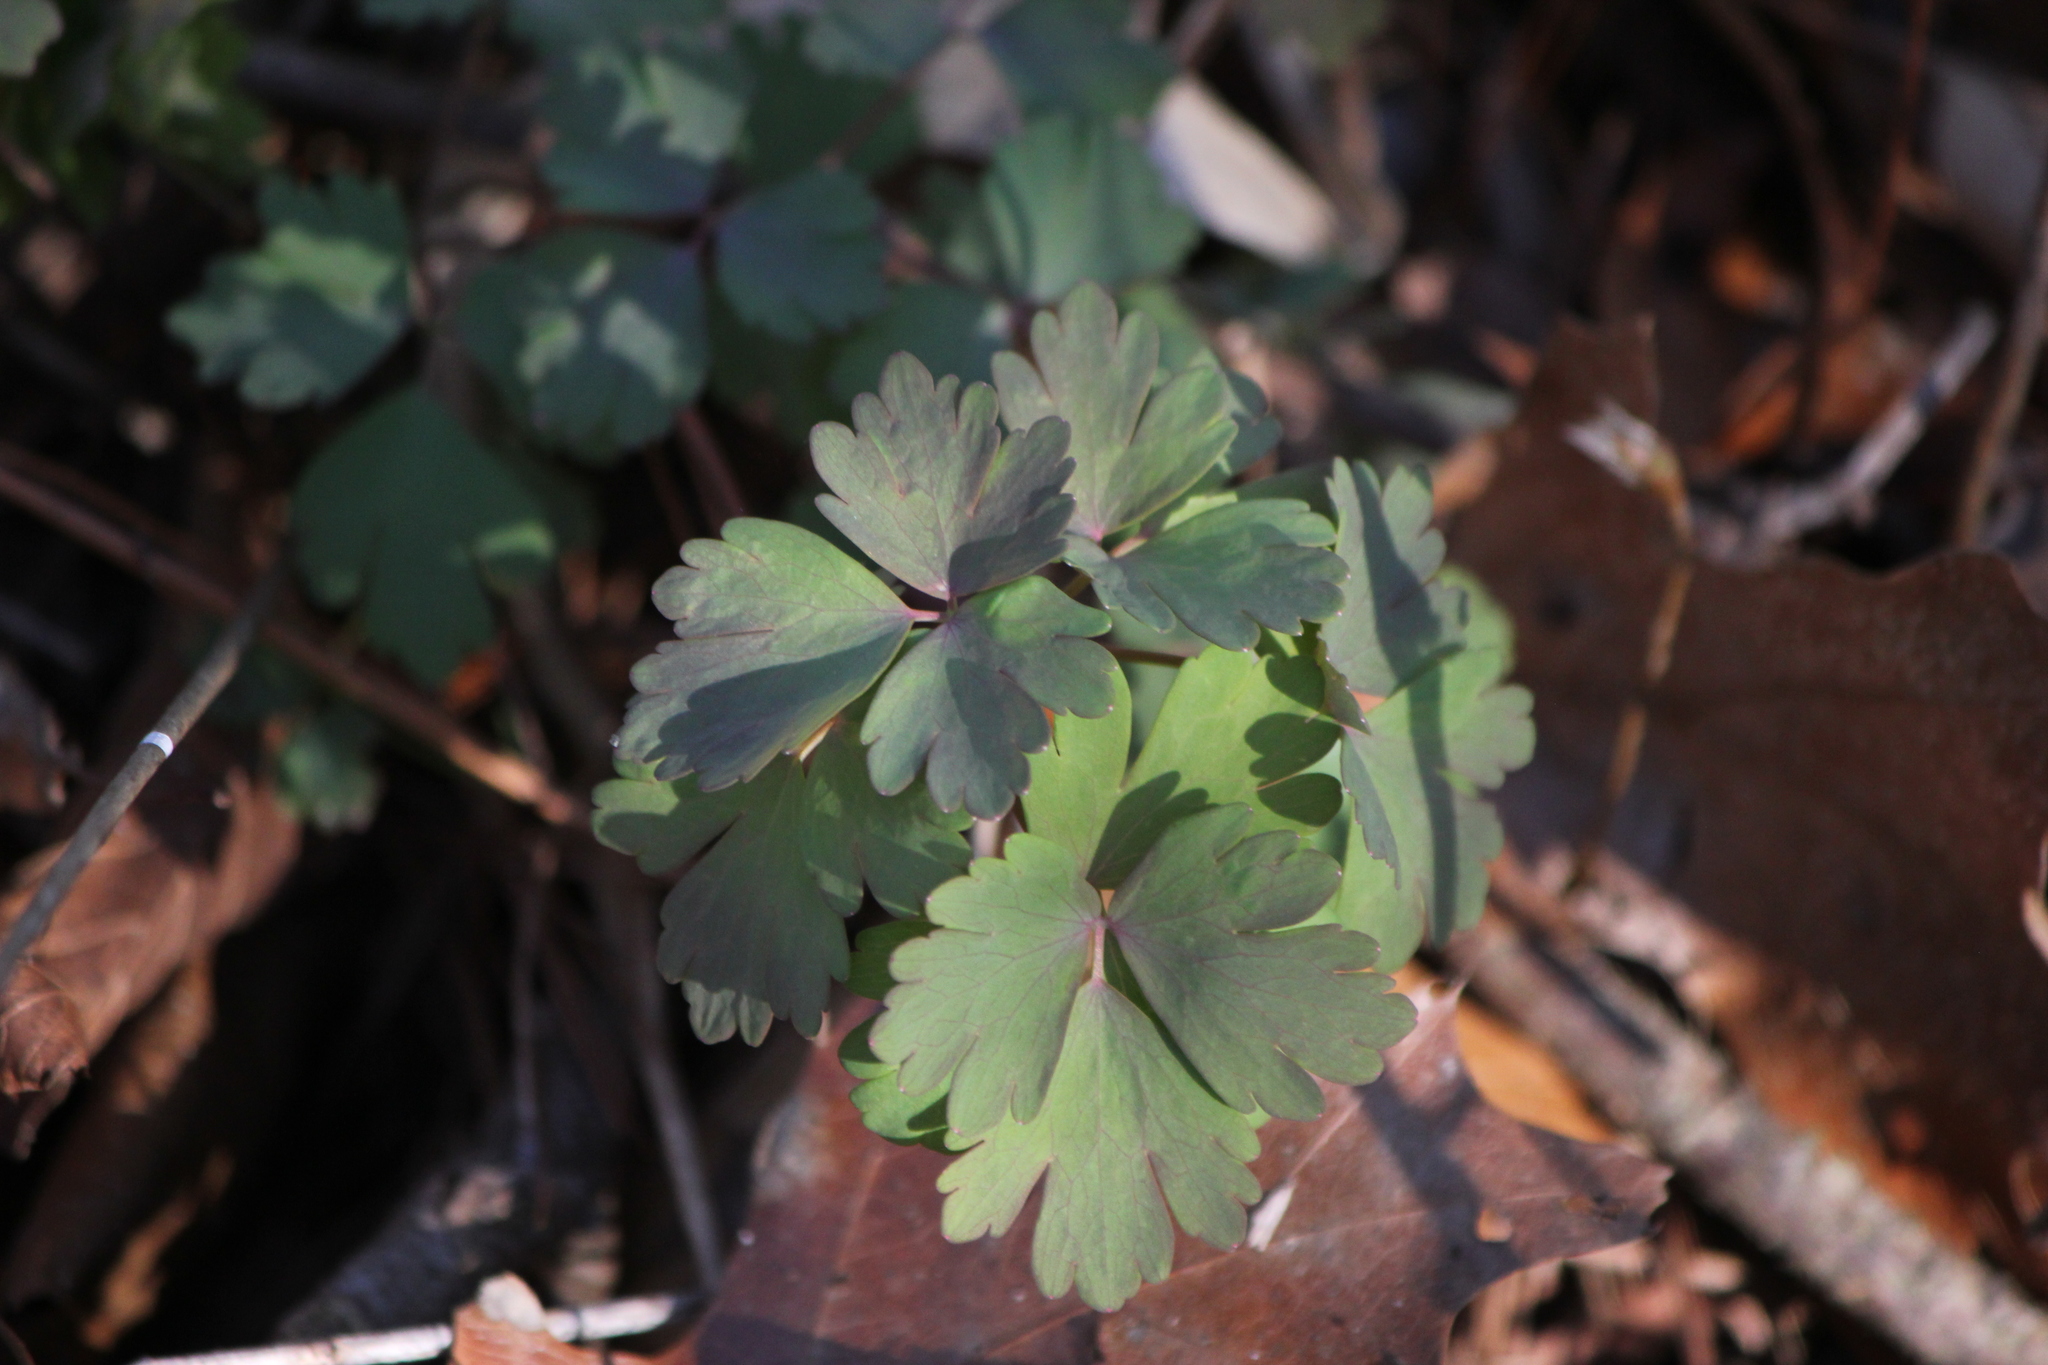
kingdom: Plantae
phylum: Tracheophyta
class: Magnoliopsida
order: Ranunculales
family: Ranunculaceae
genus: Aquilegia
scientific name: Aquilegia canadensis
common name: American columbine
